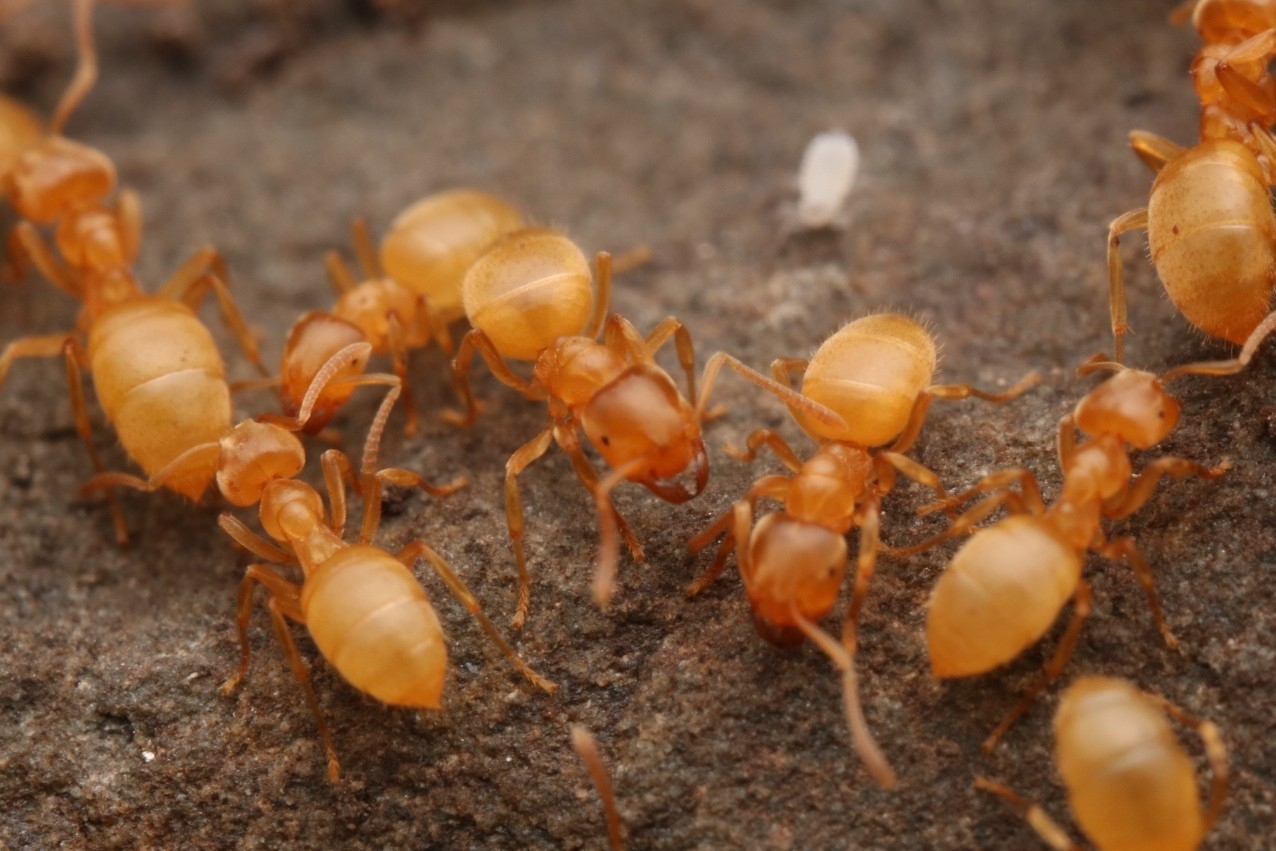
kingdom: Animalia
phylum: Arthropoda
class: Insecta
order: Hymenoptera
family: Formicidae
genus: Cautolasius
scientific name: Cautolasius
